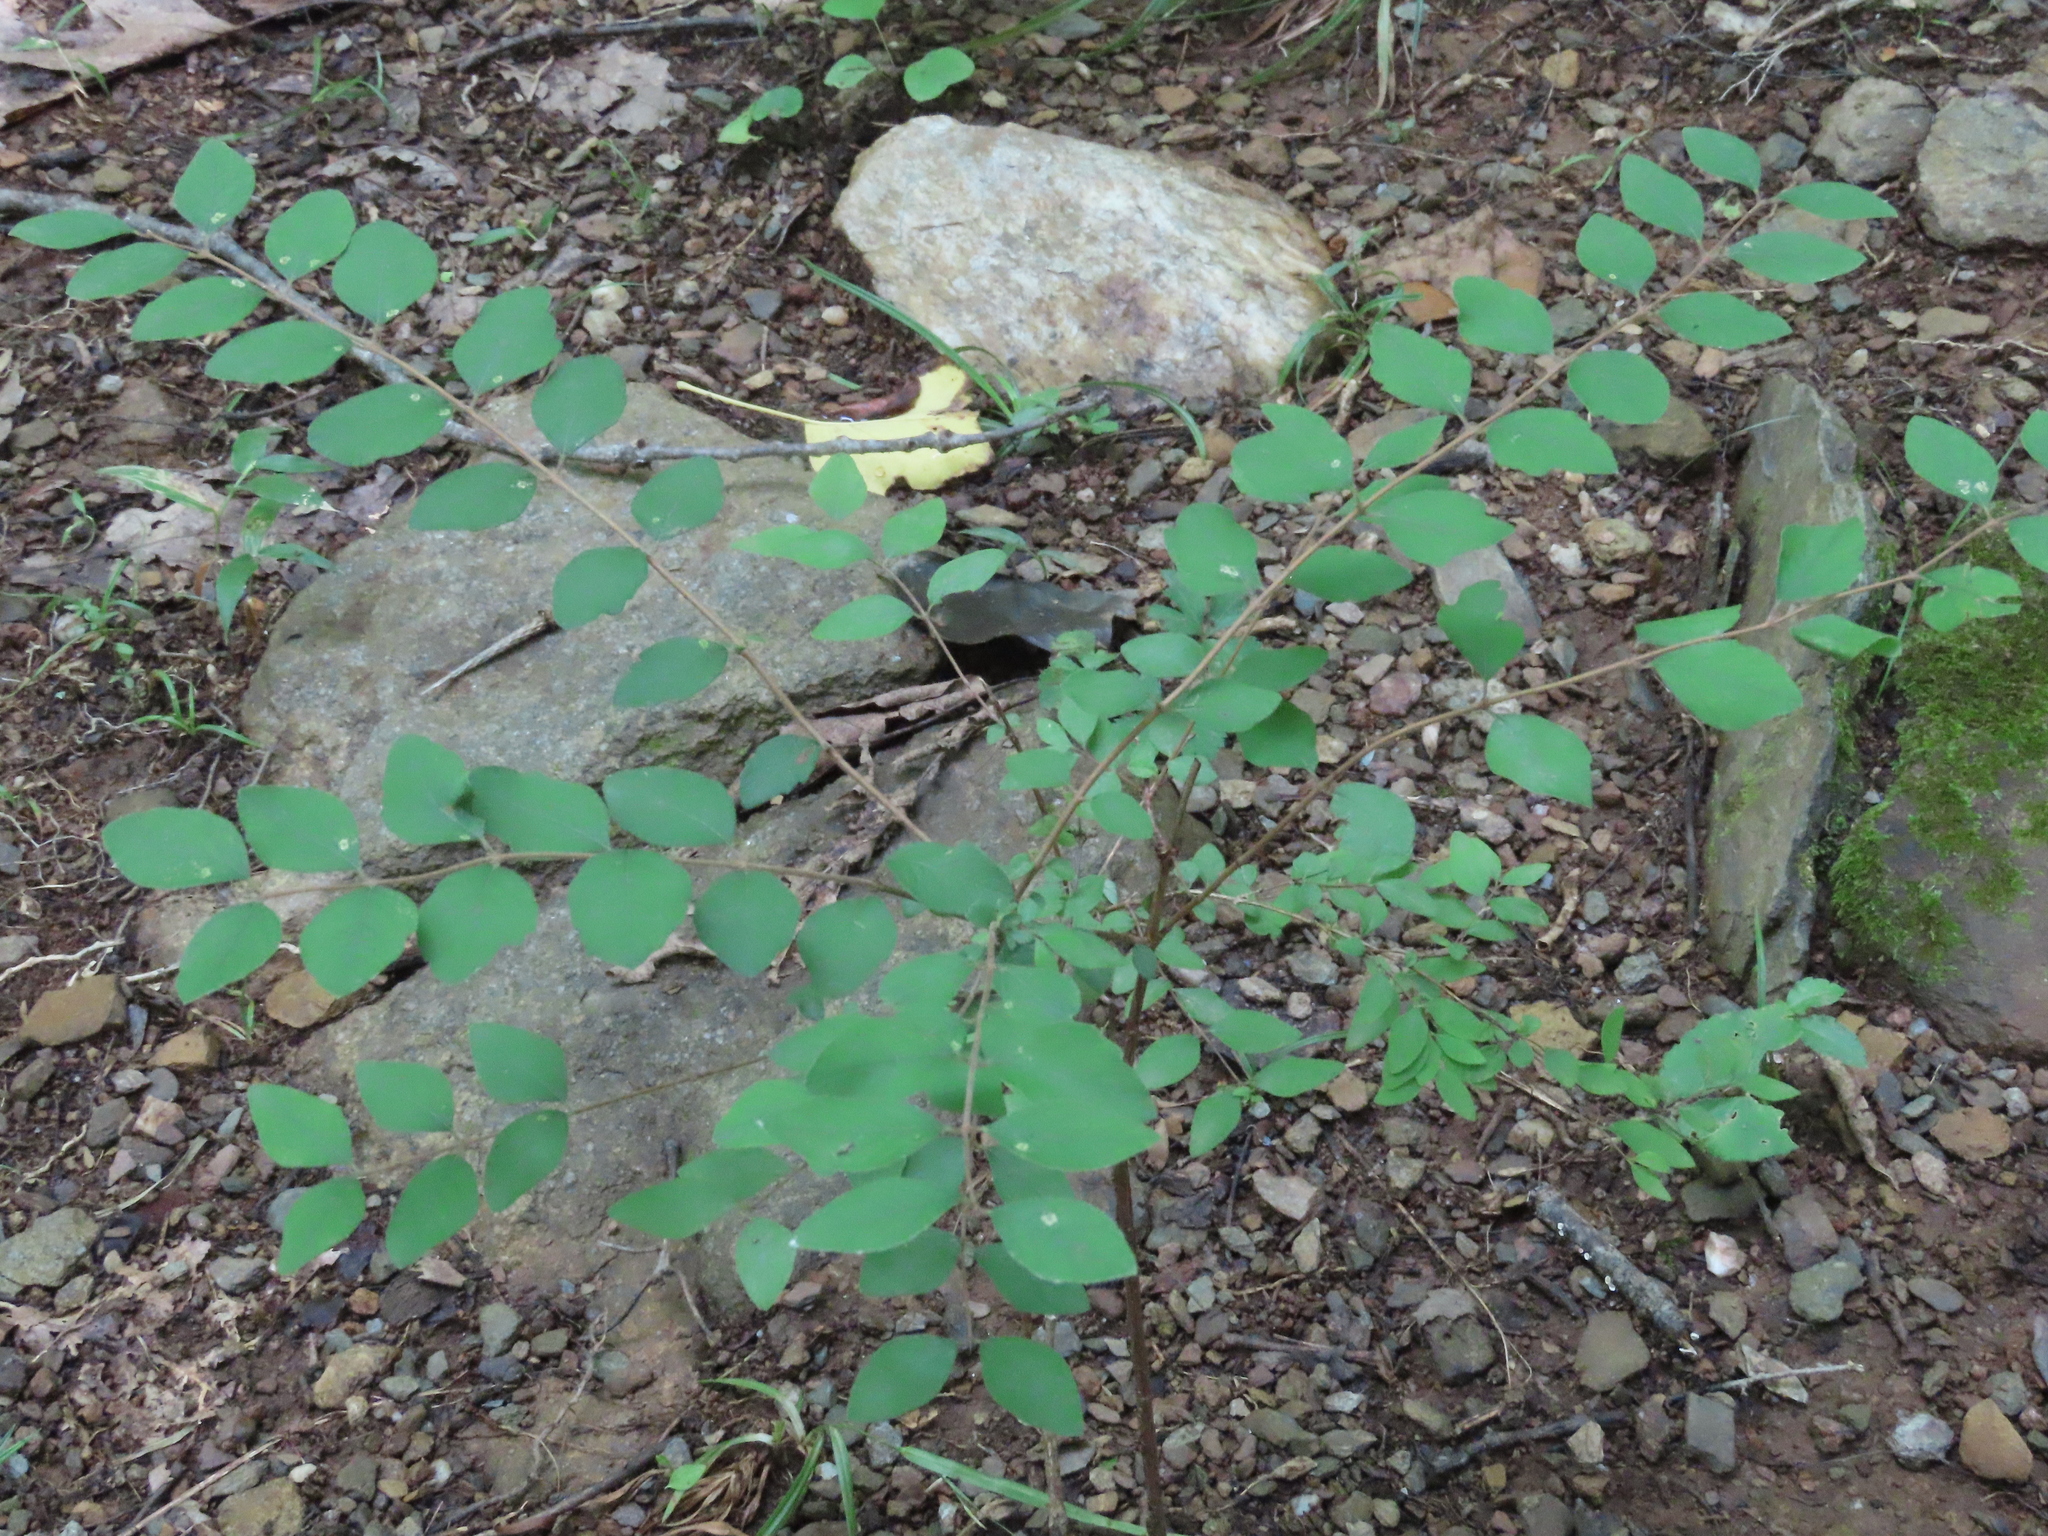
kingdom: Plantae
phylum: Tracheophyta
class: Magnoliopsida
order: Dipsacales
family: Caprifoliaceae
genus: Symphoricarpos
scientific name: Symphoricarpos orbiculatus
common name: Coralberry
